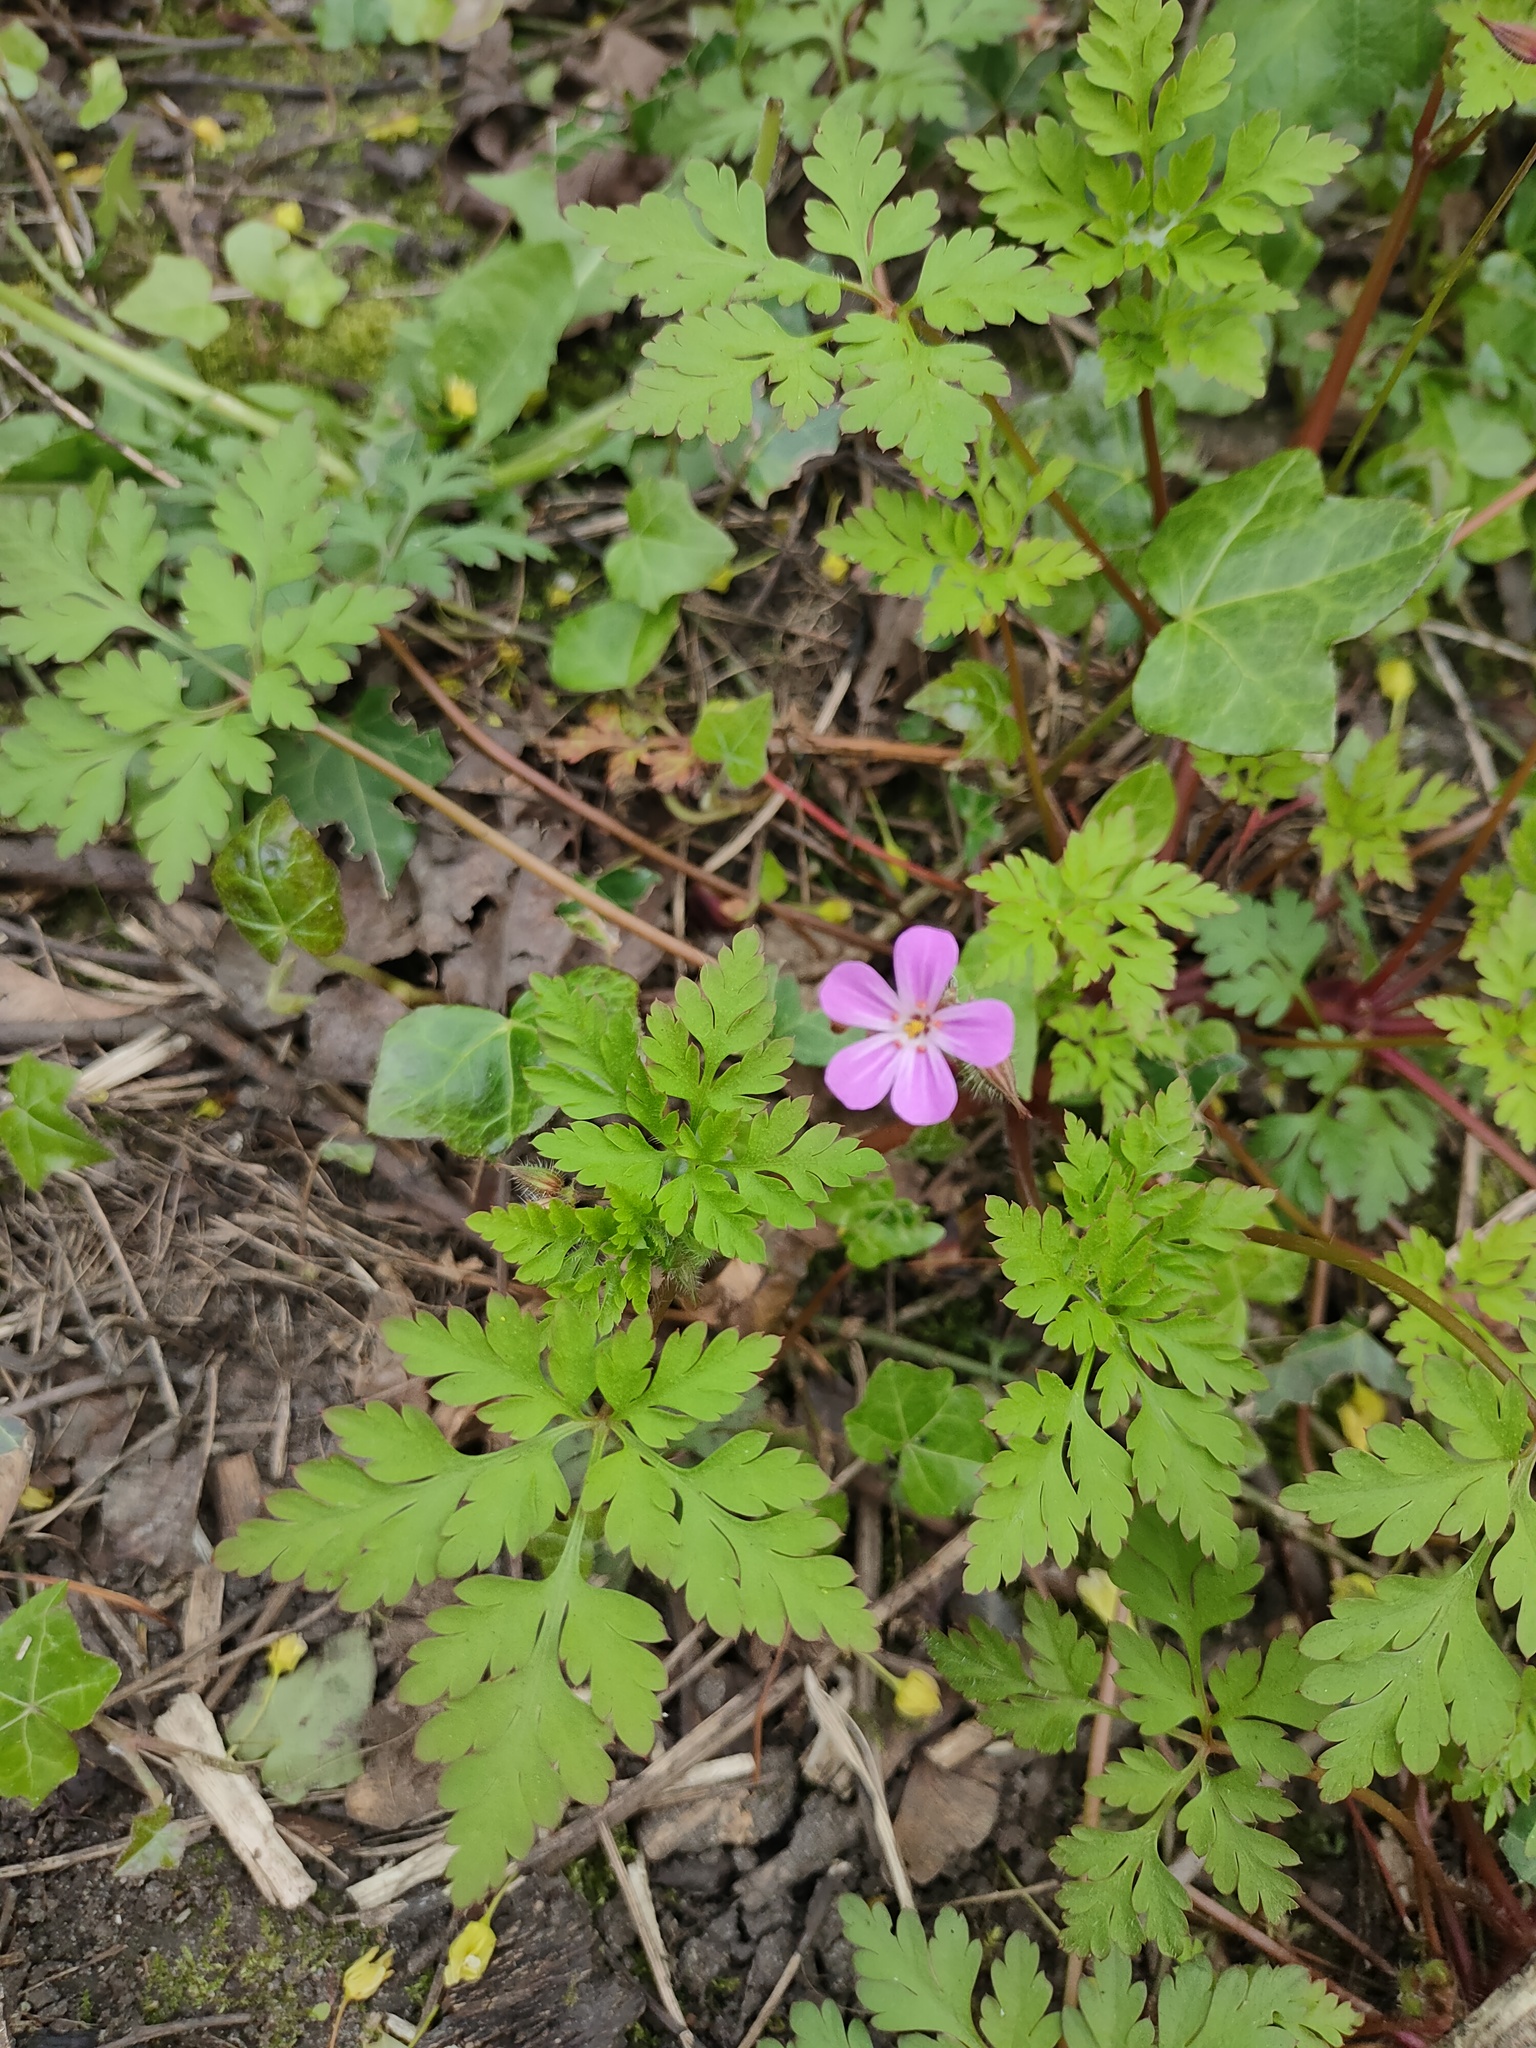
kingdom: Plantae
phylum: Tracheophyta
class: Magnoliopsida
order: Geraniales
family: Geraniaceae
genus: Geranium
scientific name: Geranium robertianum
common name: Herb-robert
